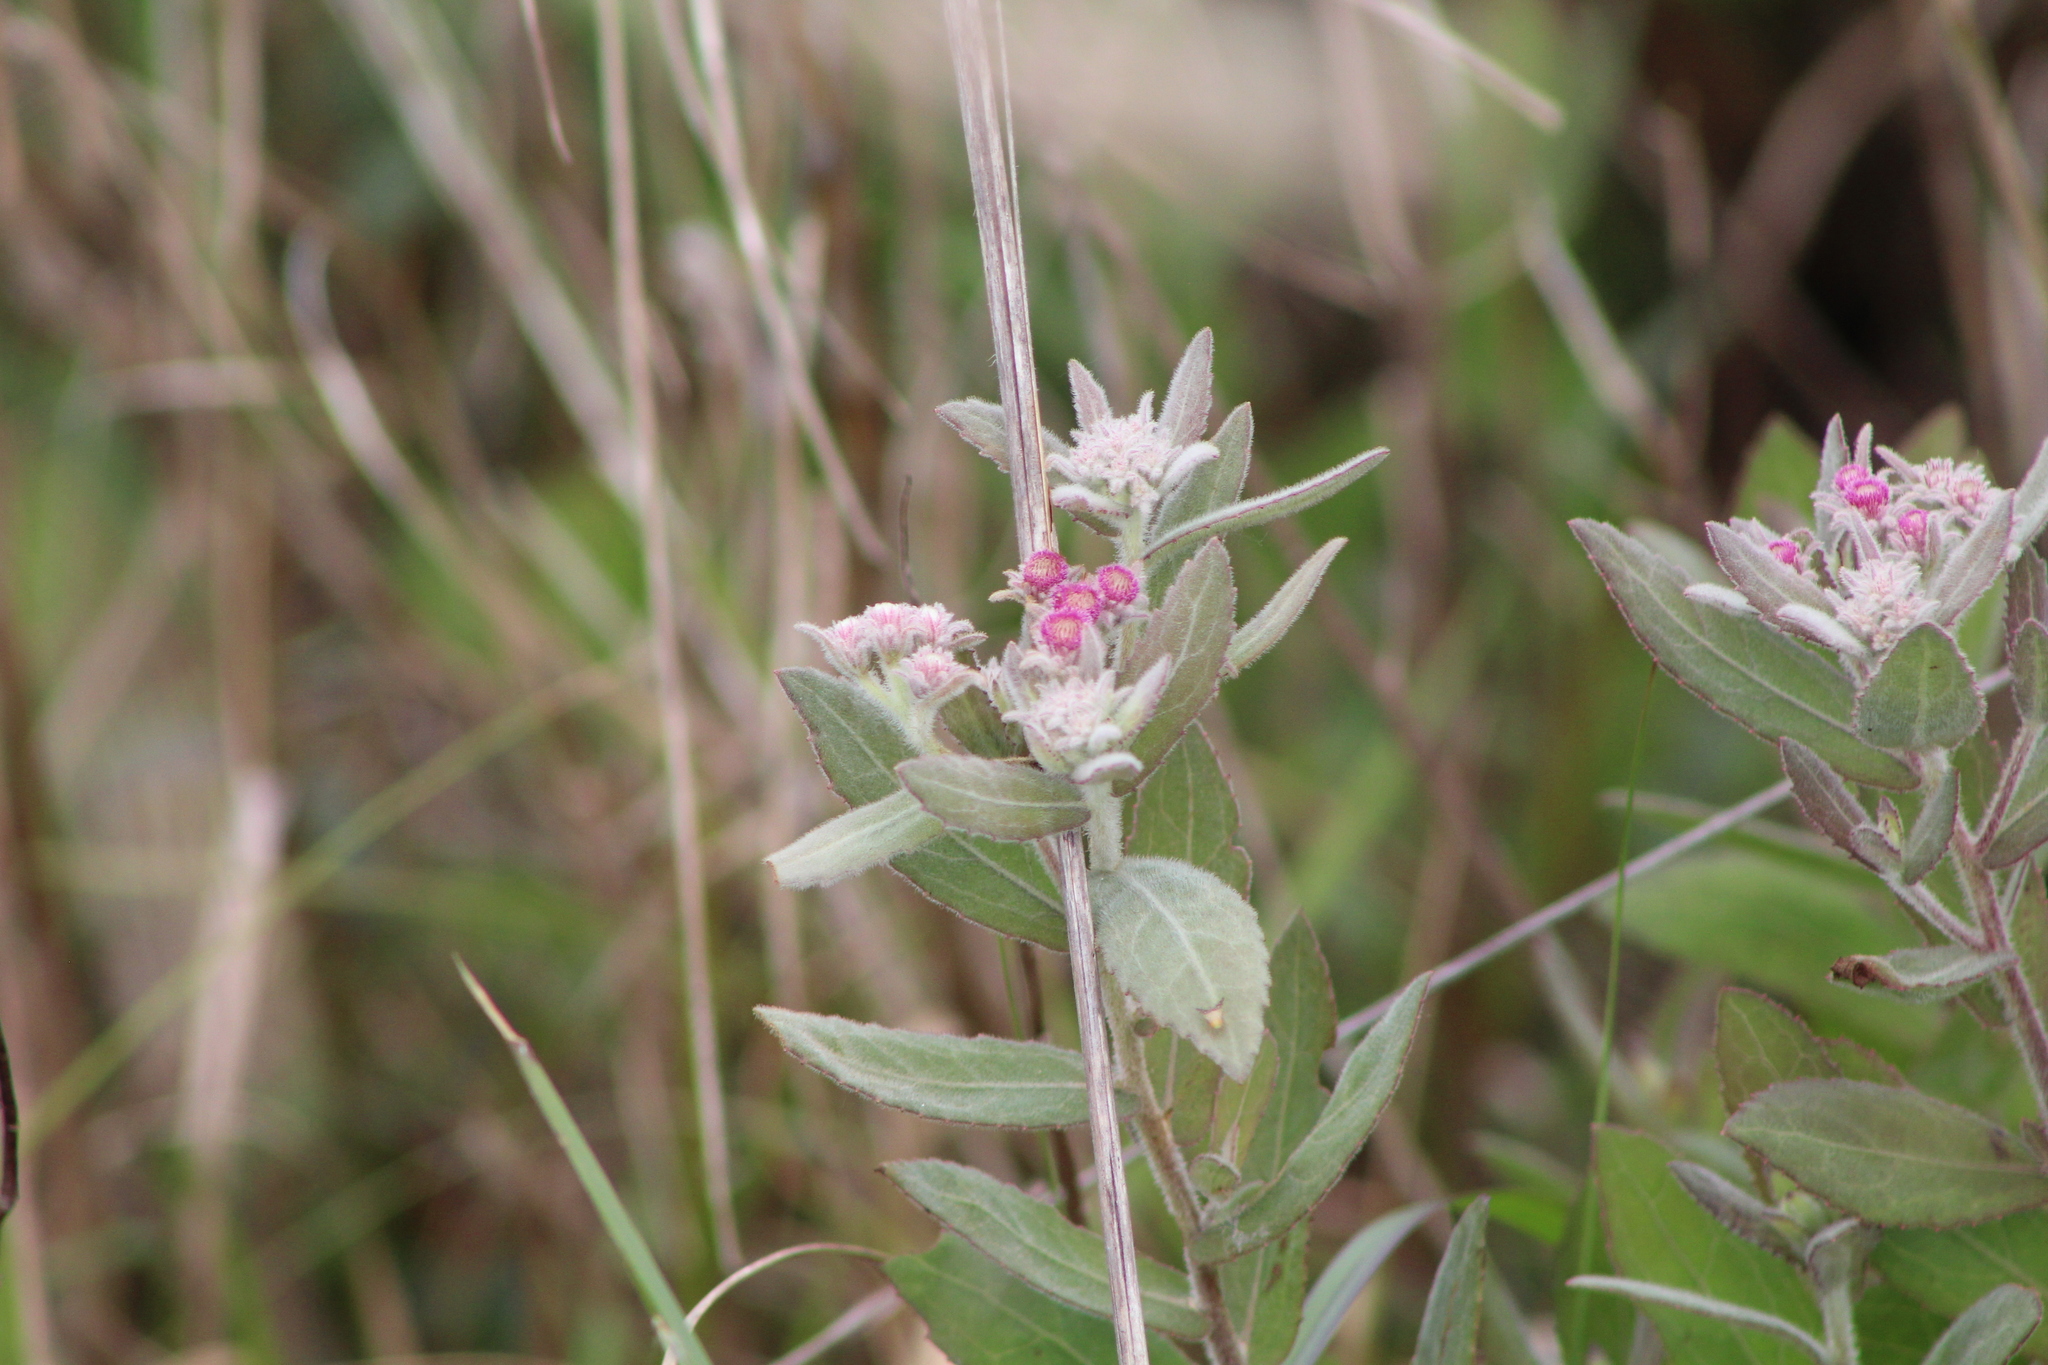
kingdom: Plantae
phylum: Tracheophyta
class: Magnoliopsida
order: Asterales
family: Asteraceae
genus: Pluchea
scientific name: Pluchea baccharis
